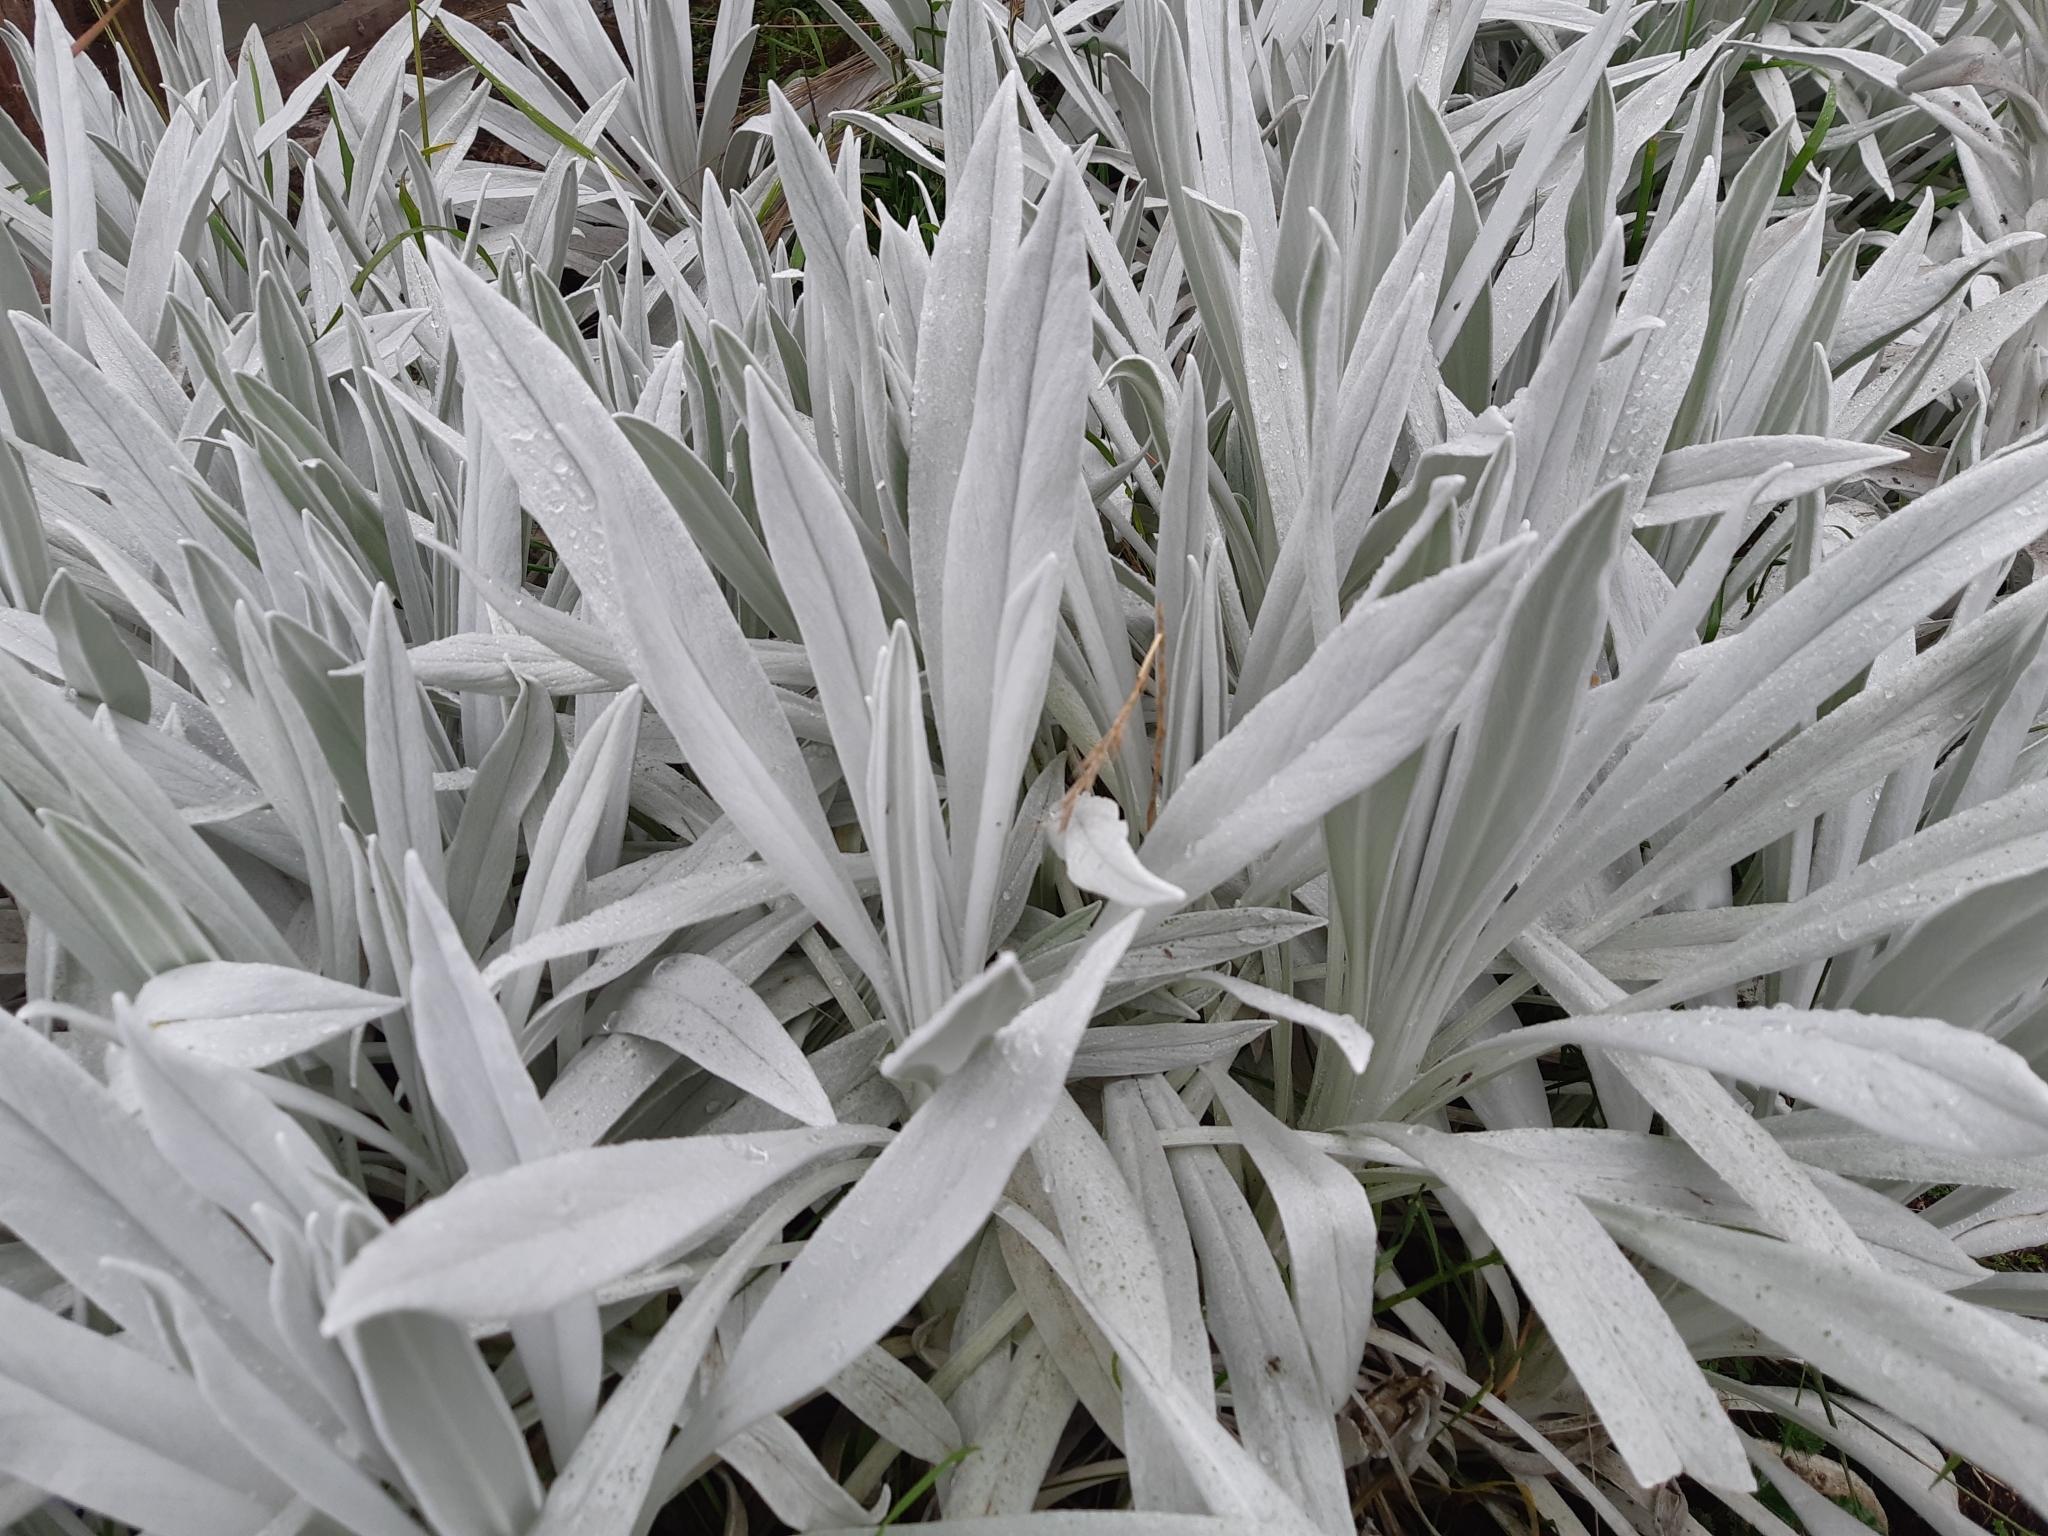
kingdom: Plantae
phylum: Tracheophyta
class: Magnoliopsida
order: Asterales
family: Asteraceae
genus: Senecio
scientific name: Senecio niveoaureus
